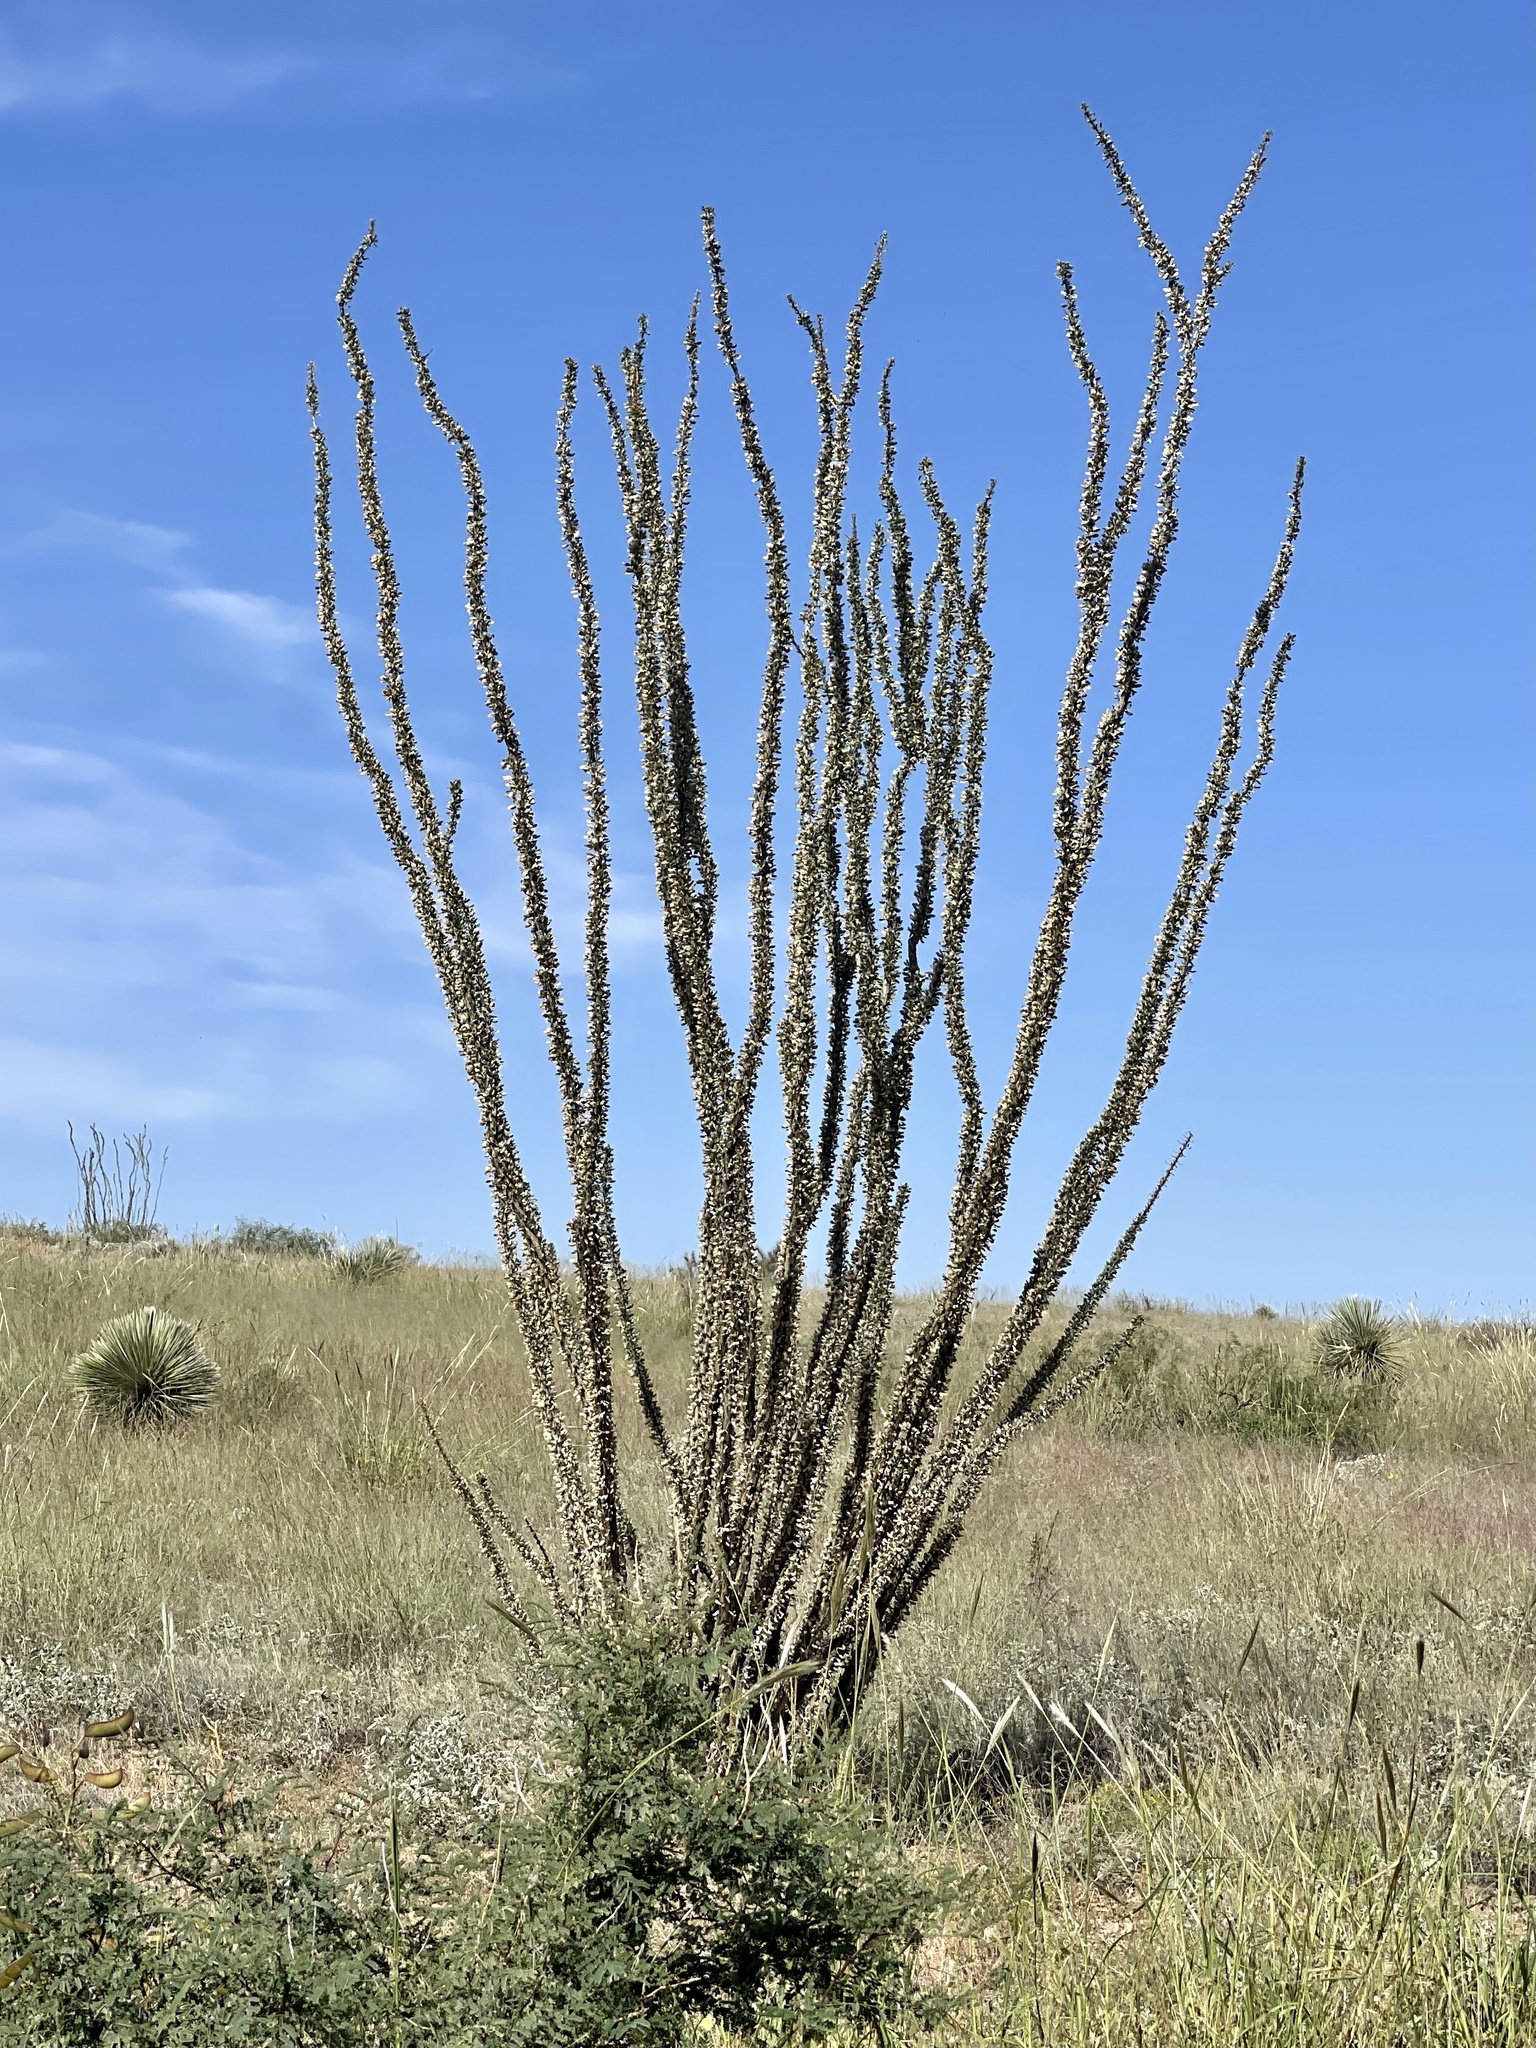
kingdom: Plantae
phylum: Tracheophyta
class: Magnoliopsida
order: Ericales
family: Fouquieriaceae
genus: Fouquieria
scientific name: Fouquieria splendens
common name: Vine-cactus
